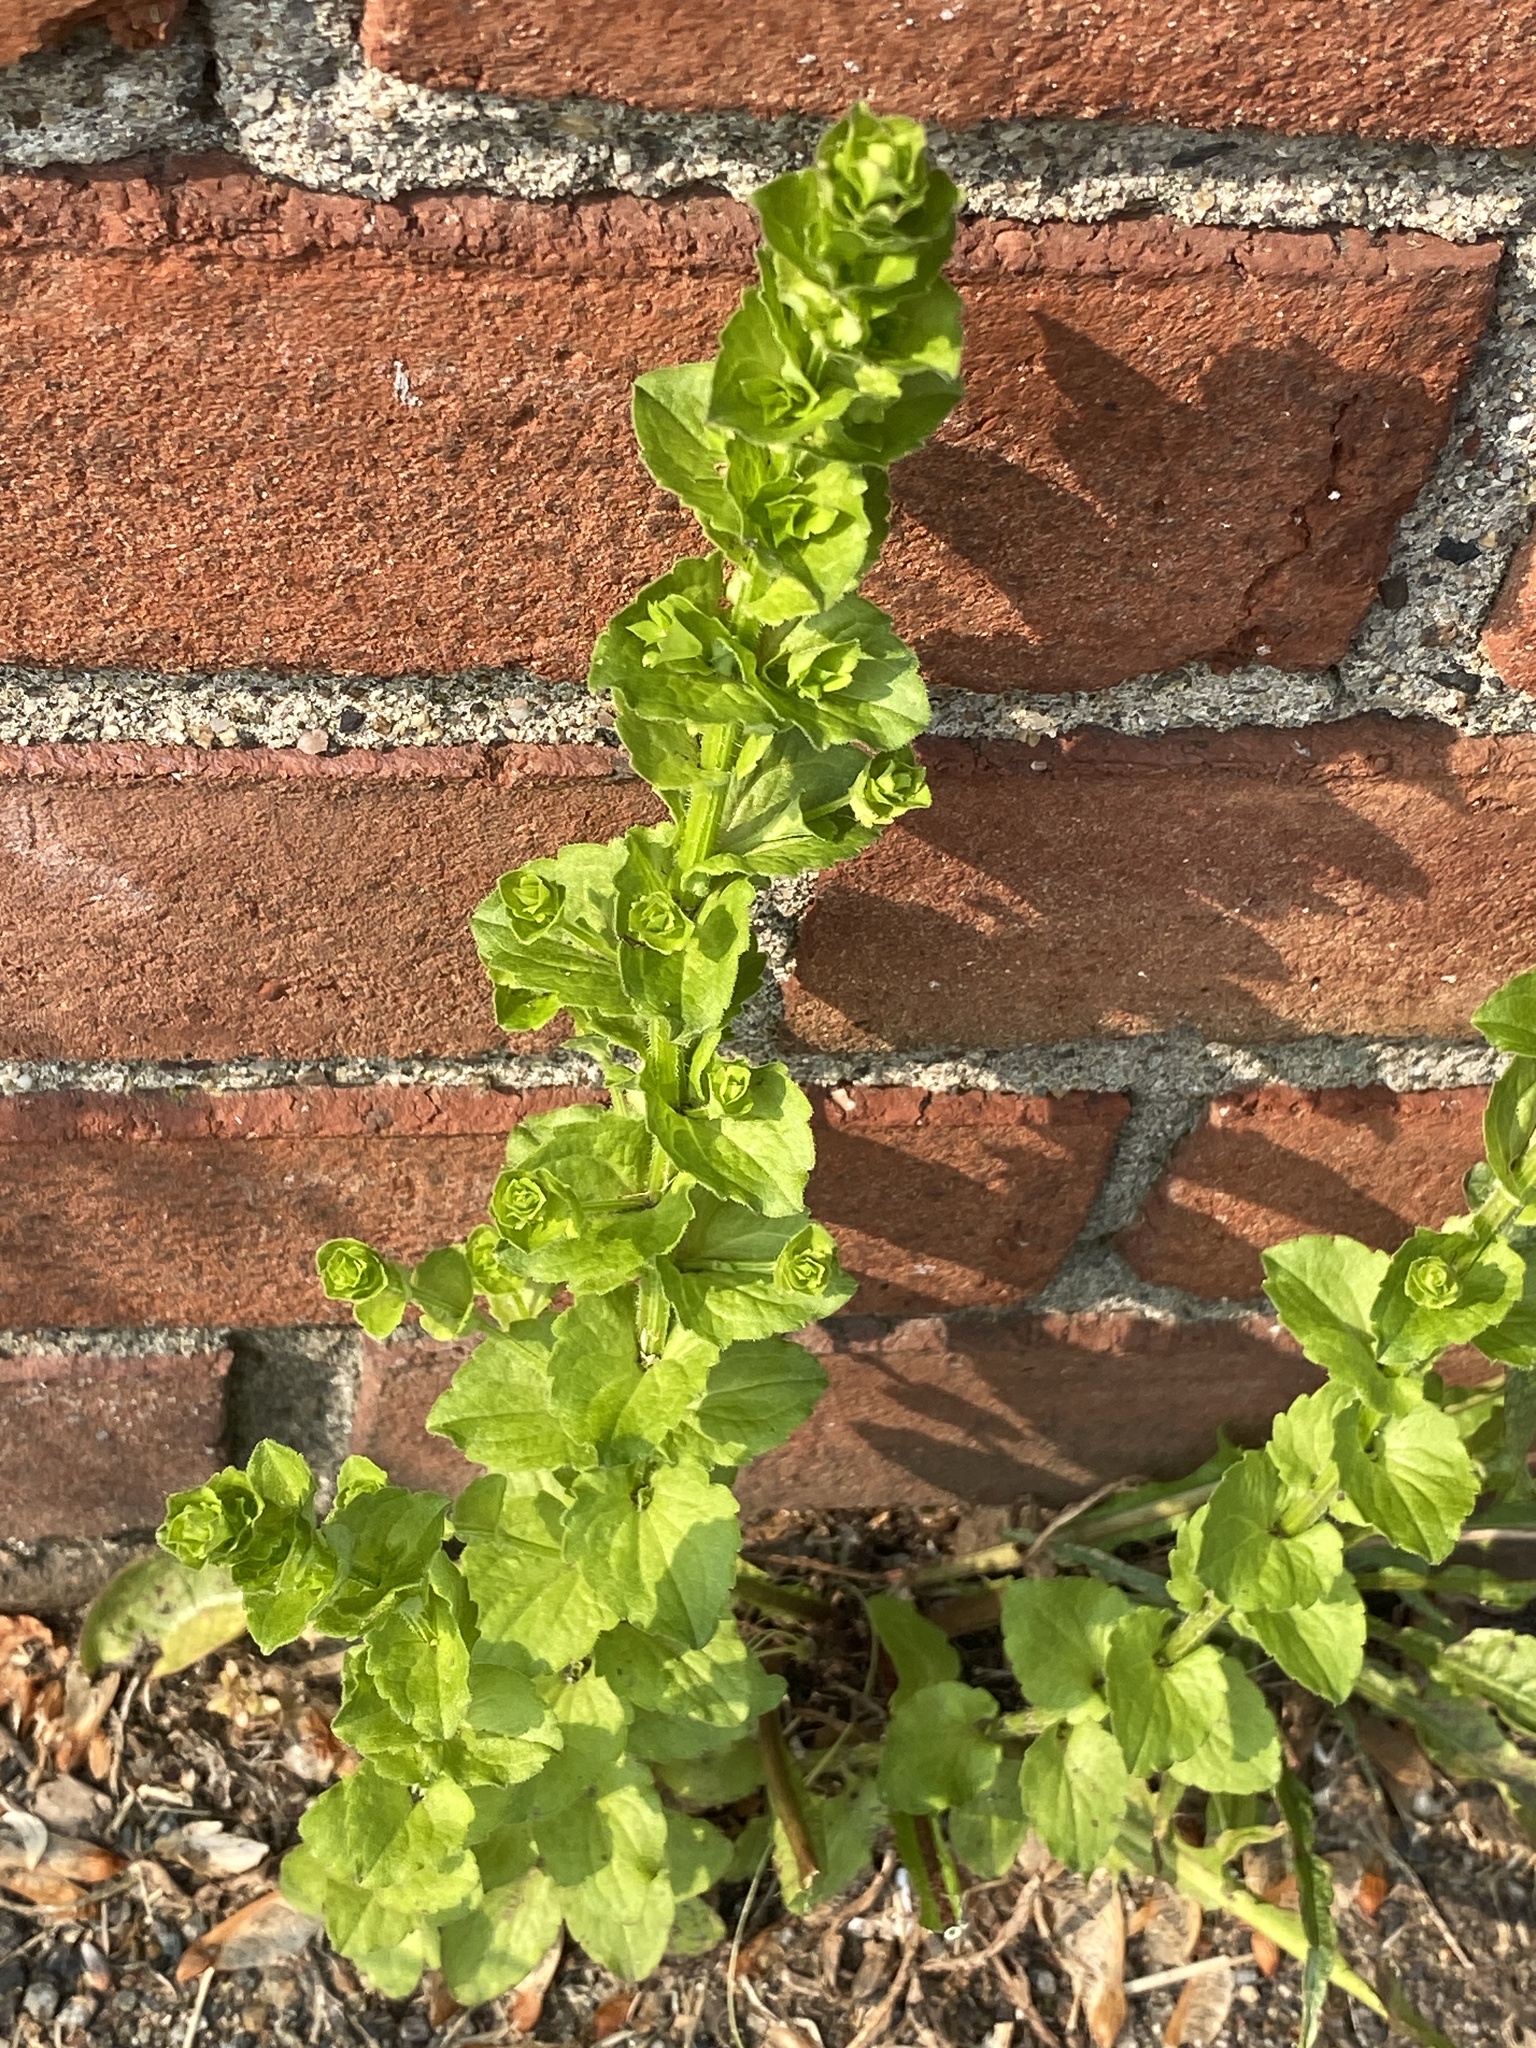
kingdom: Plantae
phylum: Tracheophyta
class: Magnoliopsida
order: Asterales
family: Campanulaceae
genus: Triodanis
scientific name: Triodanis perfoliata
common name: Clasping venus' looking-glass
